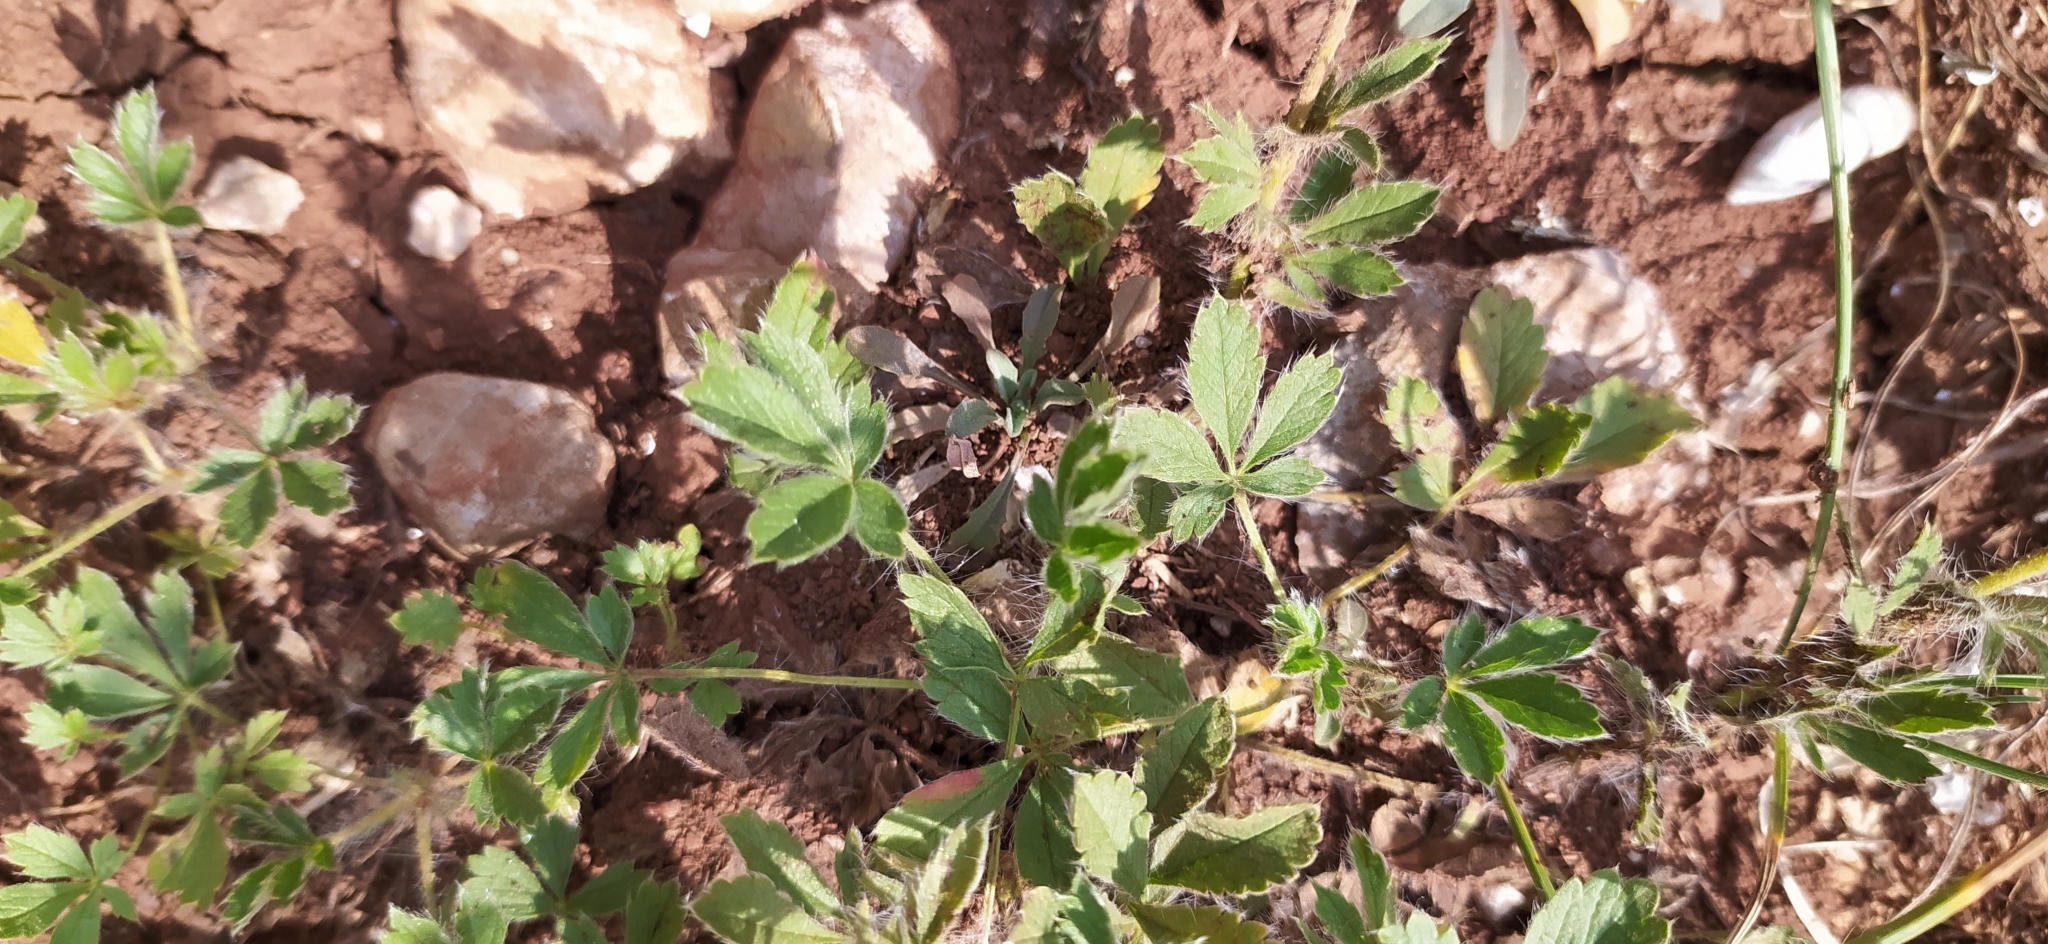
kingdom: Plantae
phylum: Tracheophyta
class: Magnoliopsida
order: Malvales
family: Malvaceae
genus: Althaea
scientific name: Althaea hirsuta
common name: Rough marsh-mallow
